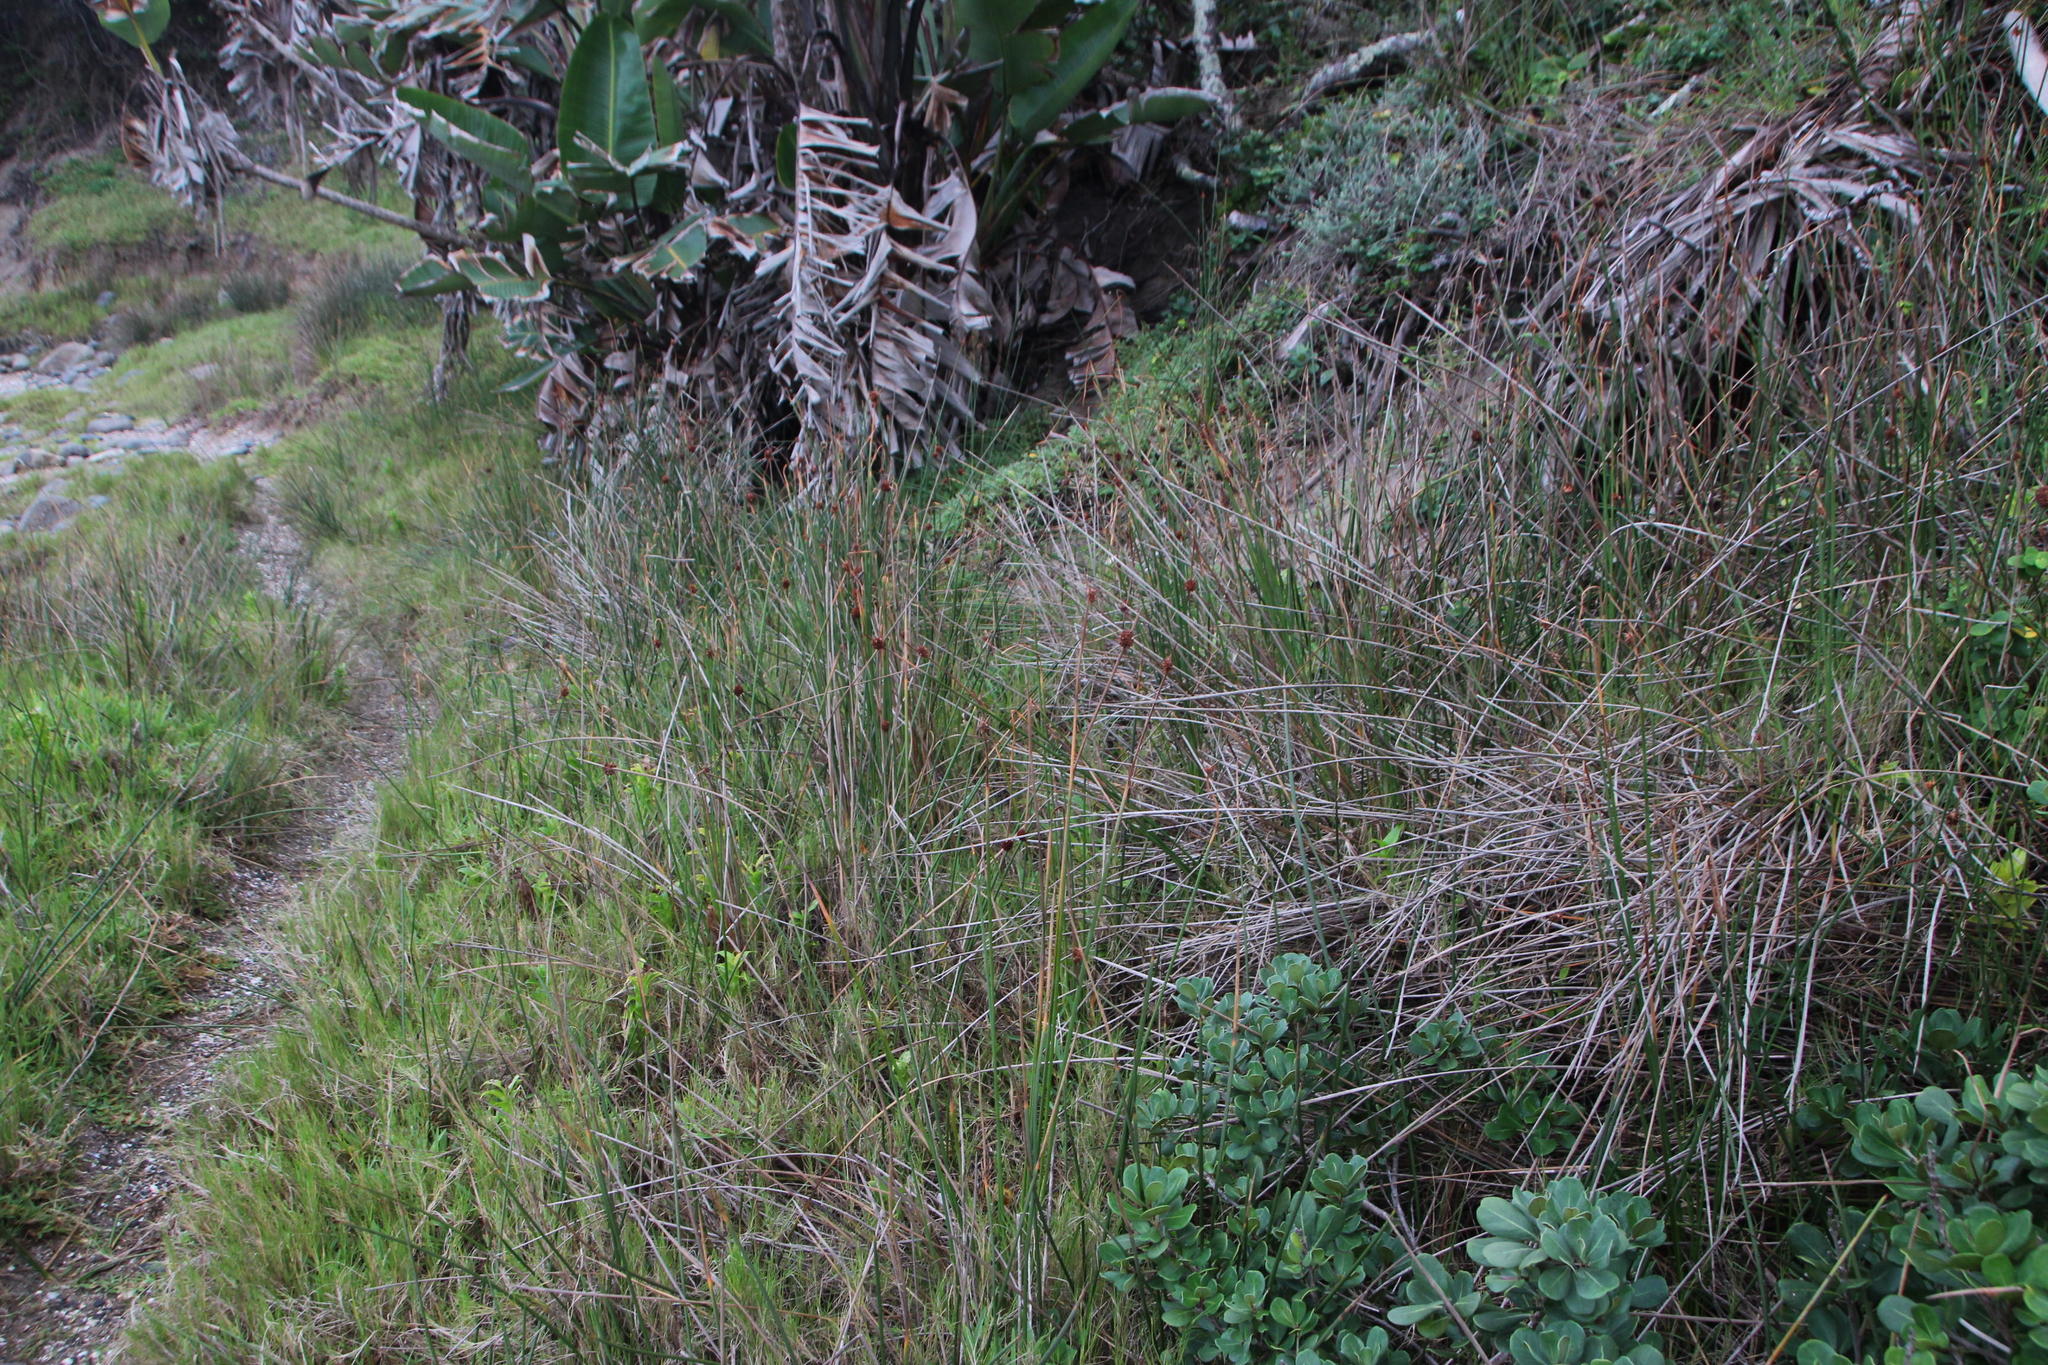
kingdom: Plantae
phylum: Tracheophyta
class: Liliopsida
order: Poales
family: Cyperaceae
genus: Ficinia
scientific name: Ficinia nodosa
